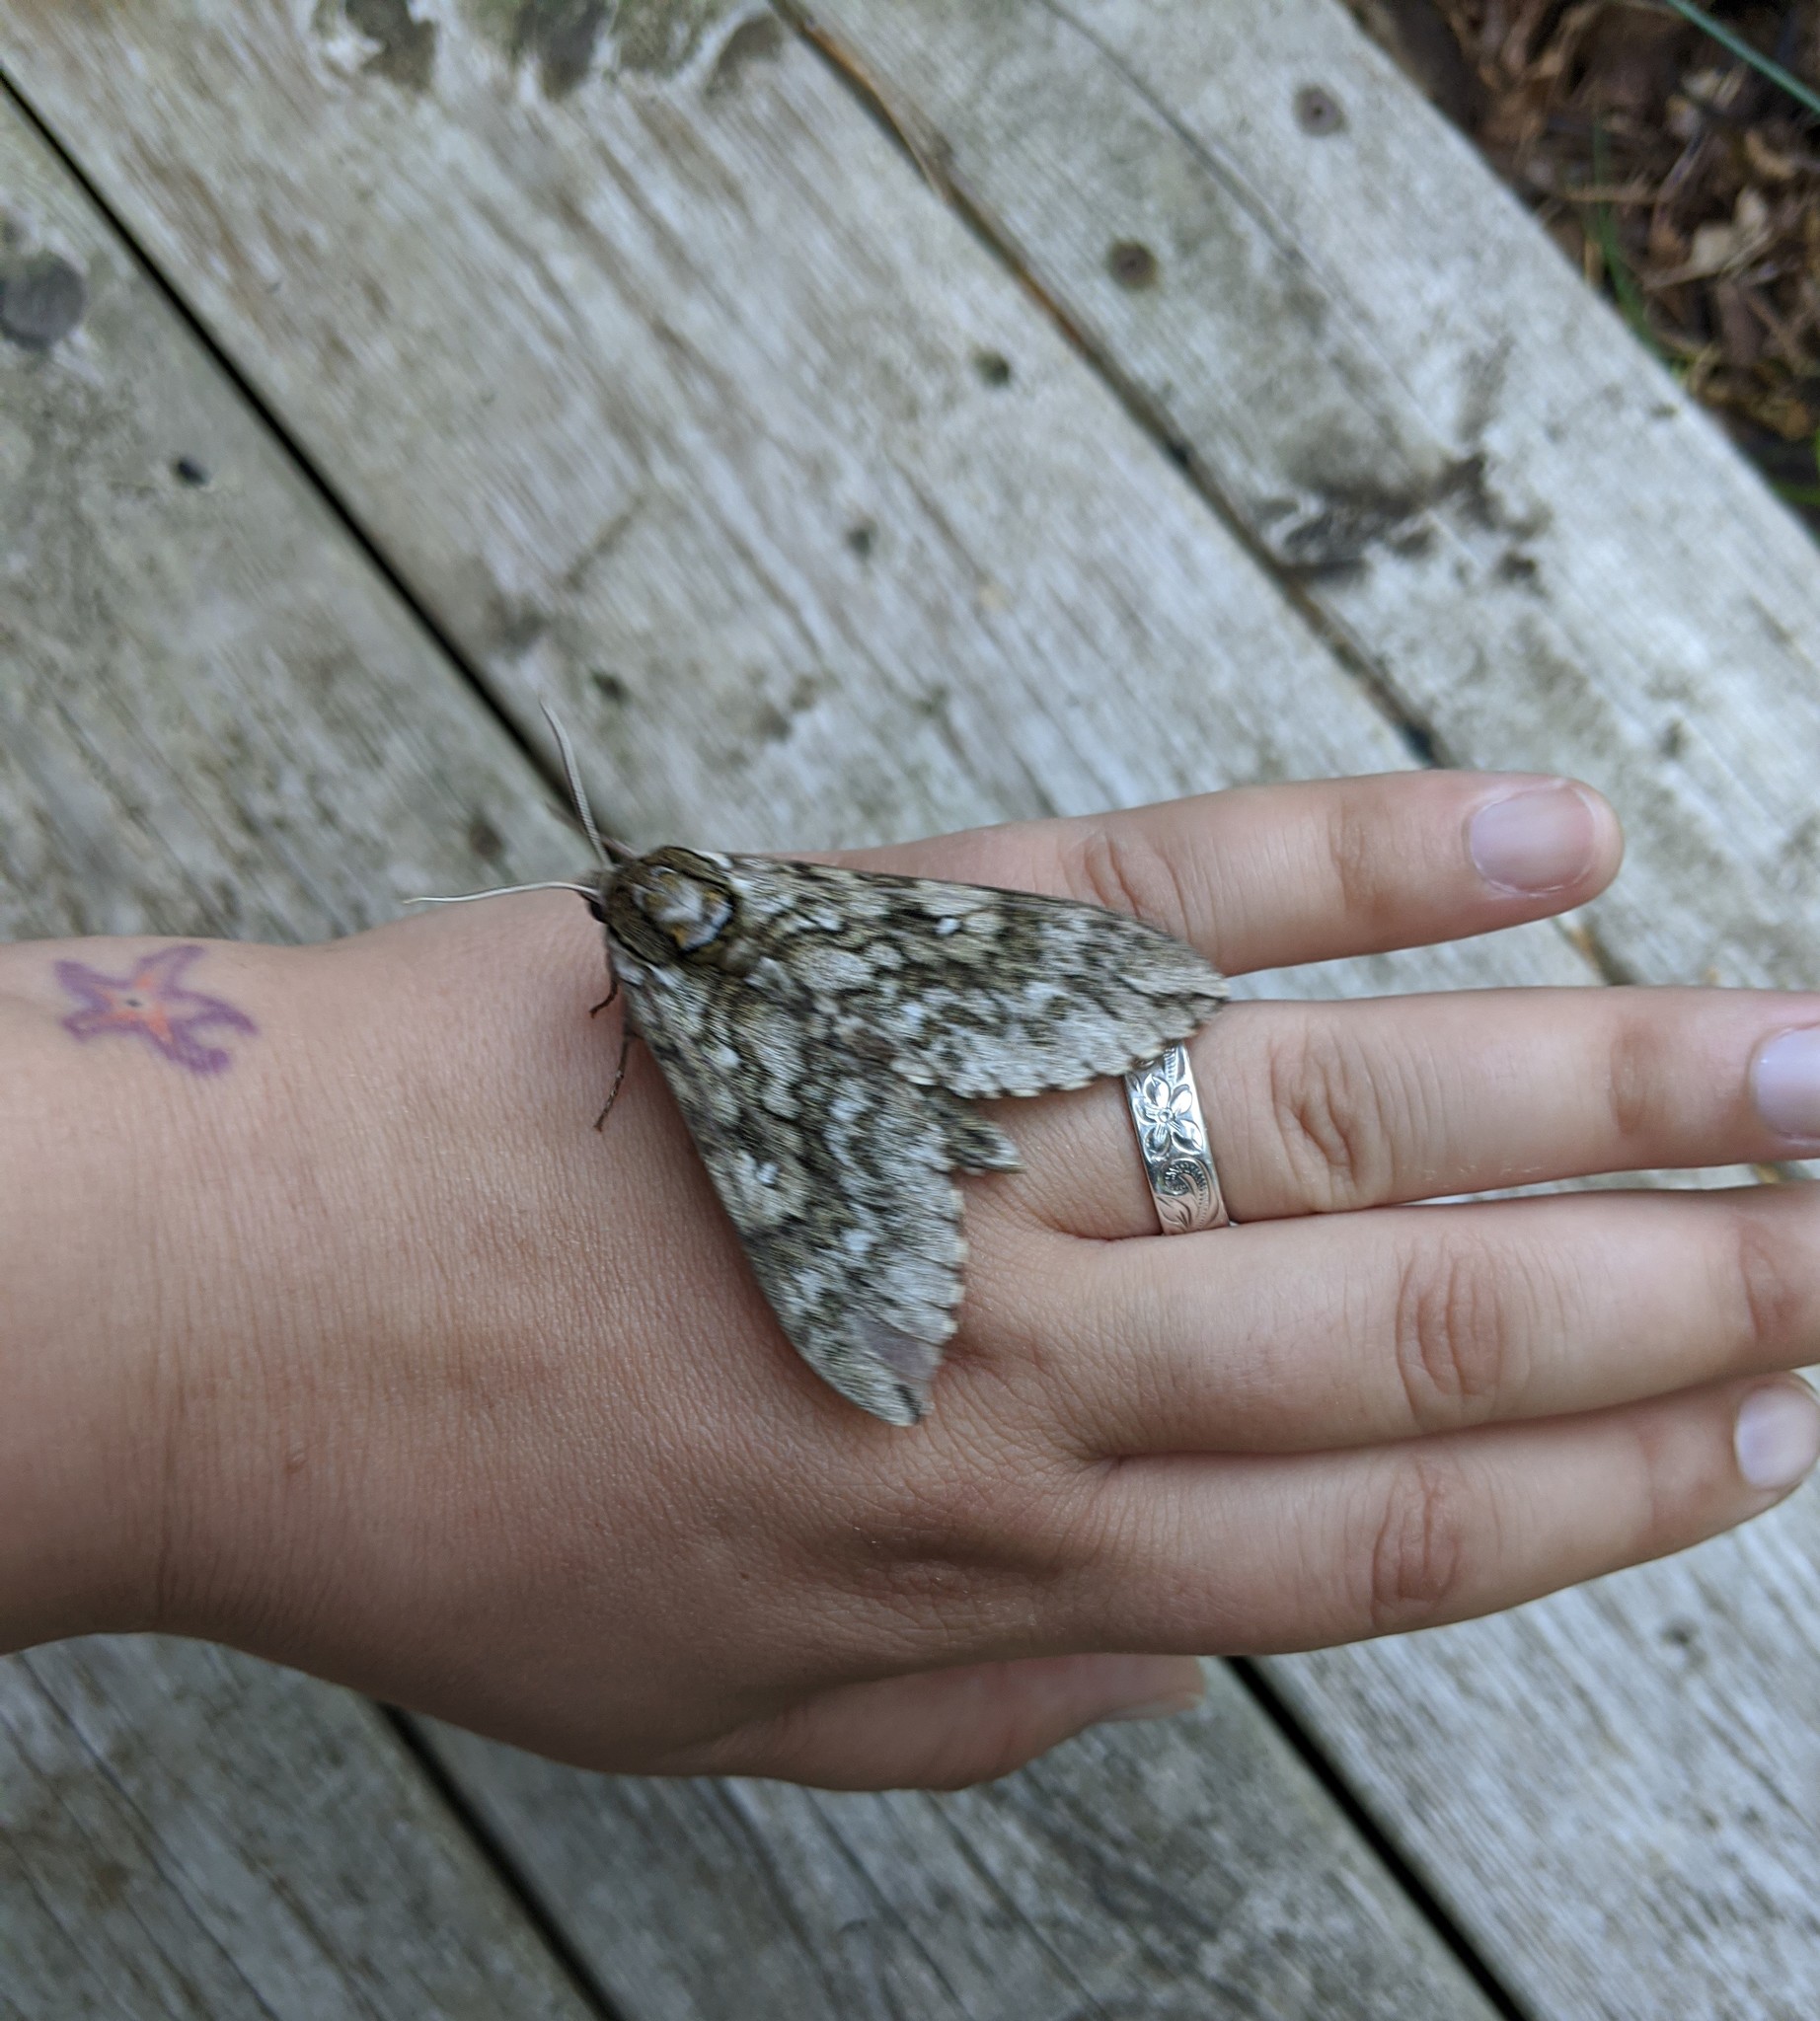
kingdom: Animalia
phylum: Arthropoda
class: Insecta
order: Lepidoptera
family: Sphingidae
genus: Ceratomia
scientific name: Ceratomia undulosa
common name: Waved sphinx
